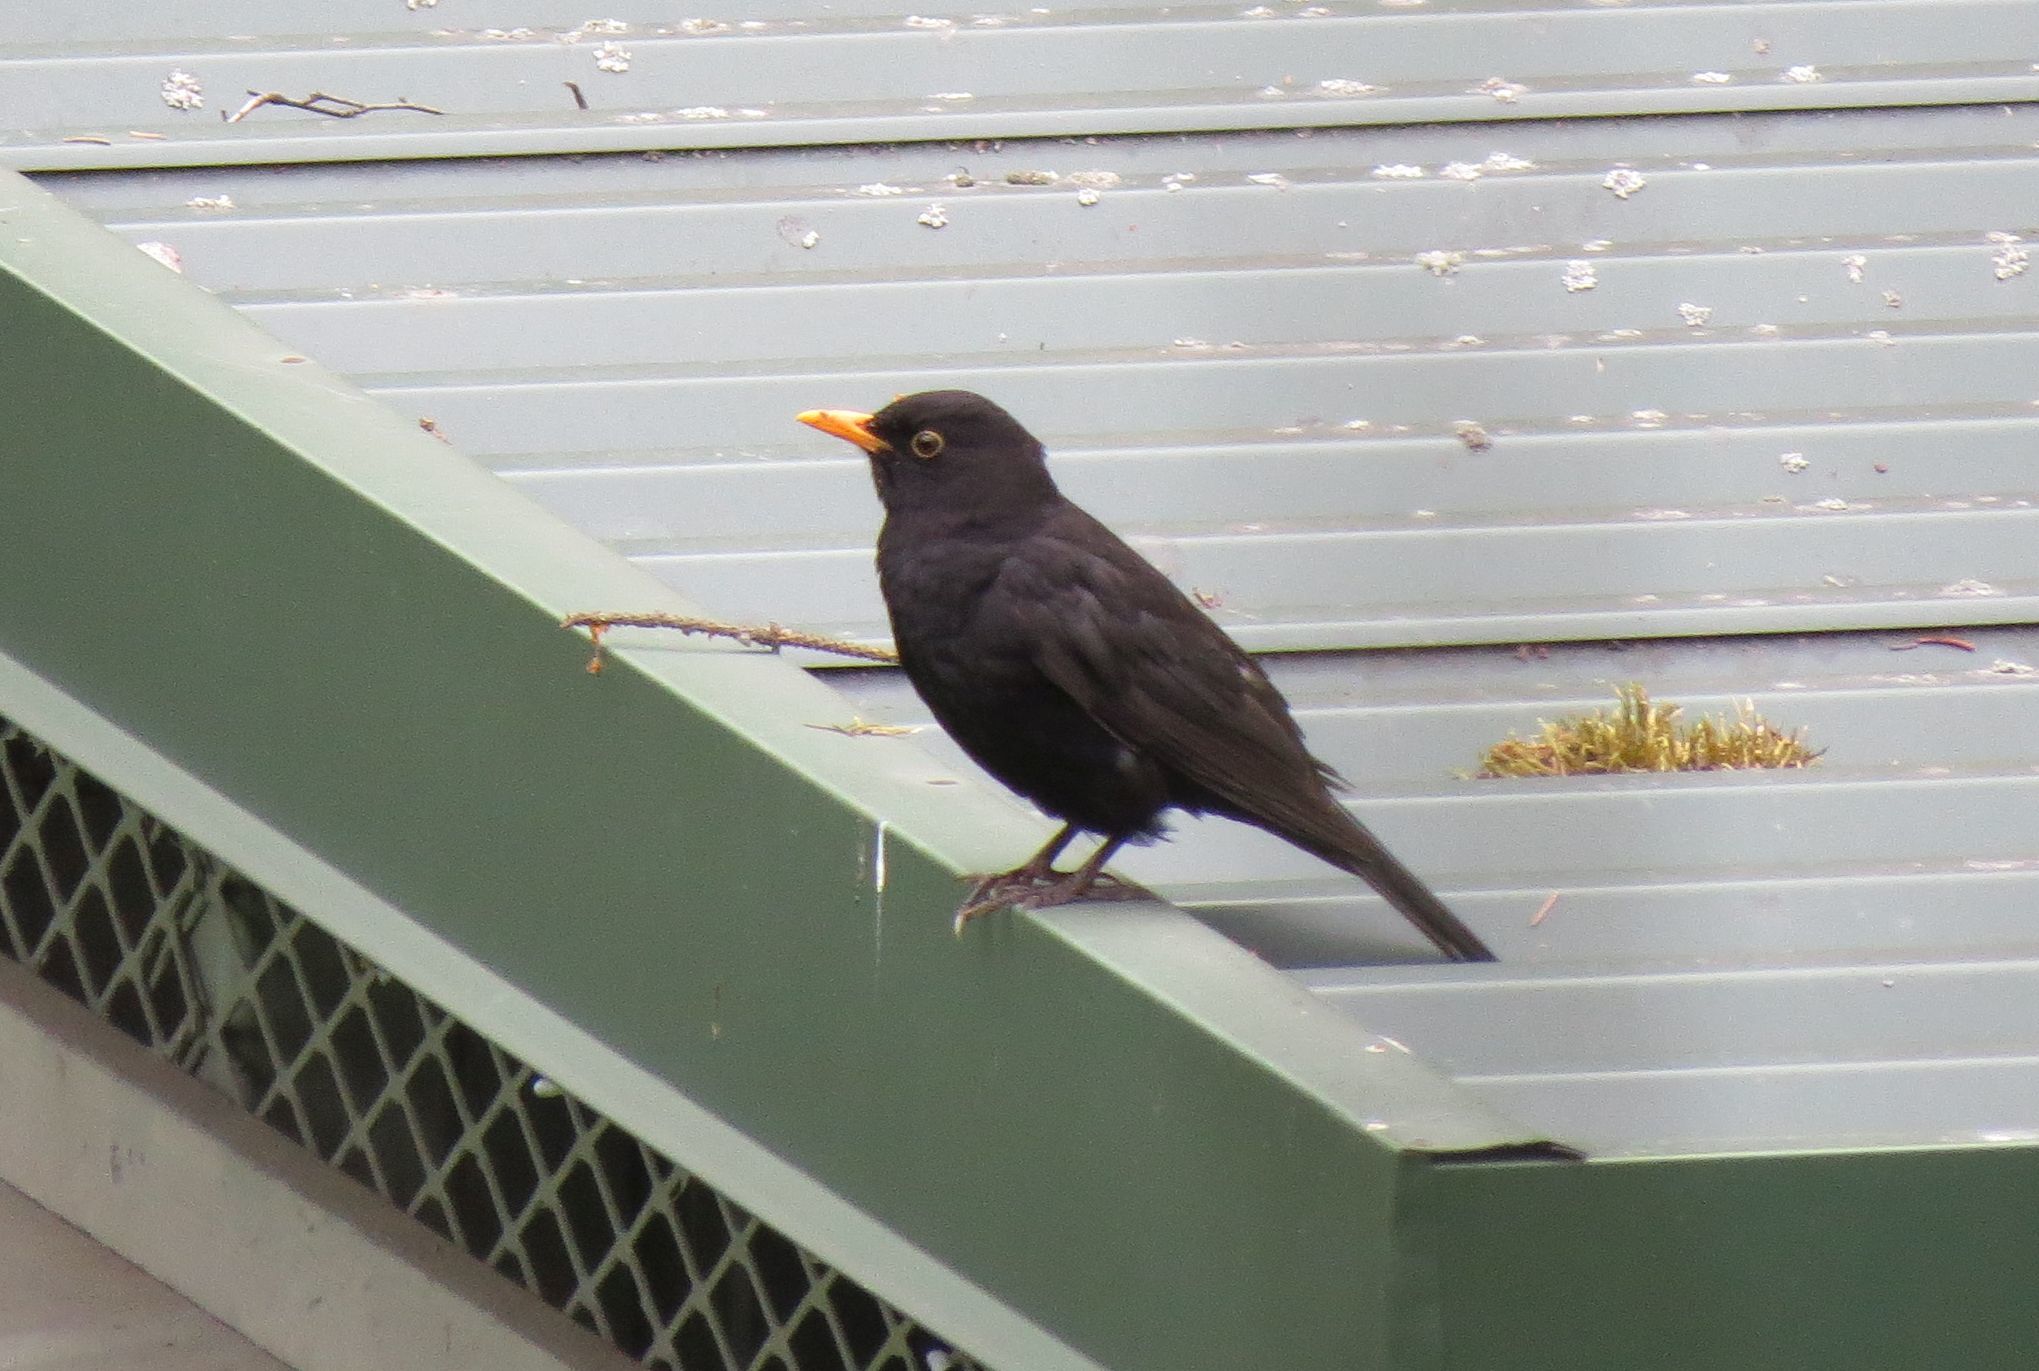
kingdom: Animalia
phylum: Chordata
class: Aves
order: Passeriformes
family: Turdidae
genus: Turdus
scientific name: Turdus merula
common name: Common blackbird
